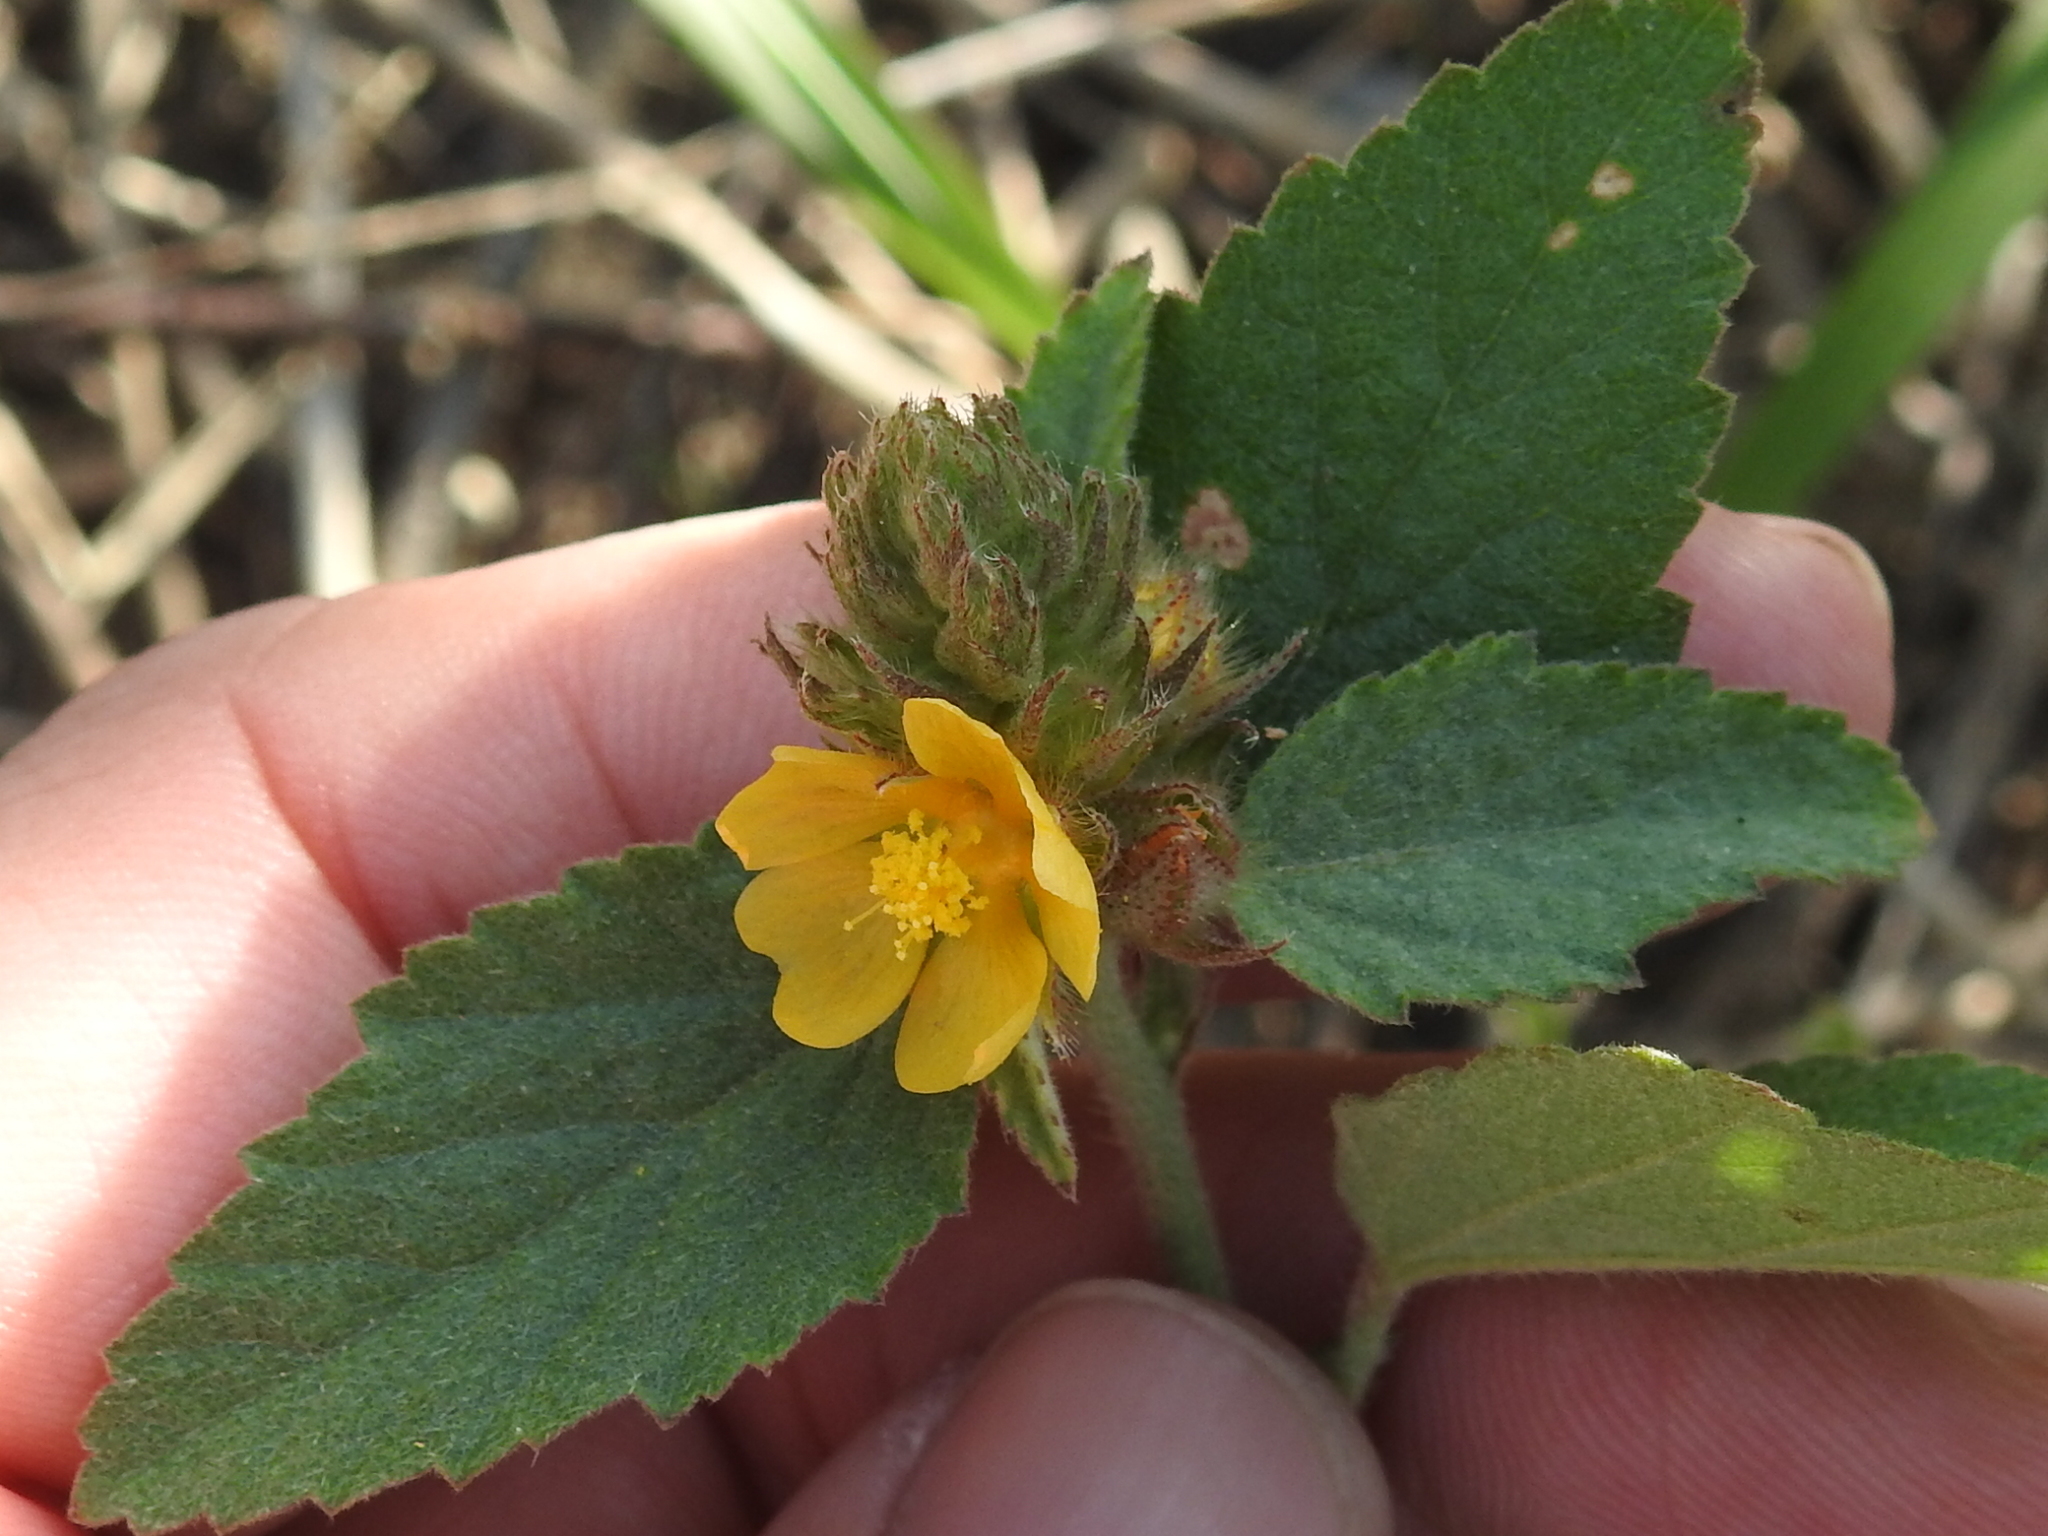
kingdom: Plantae
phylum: Tracheophyta
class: Magnoliopsida
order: Malvales
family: Malvaceae
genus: Malvastrum
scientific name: Malvastrum americanum
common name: Spiked malvastrum
